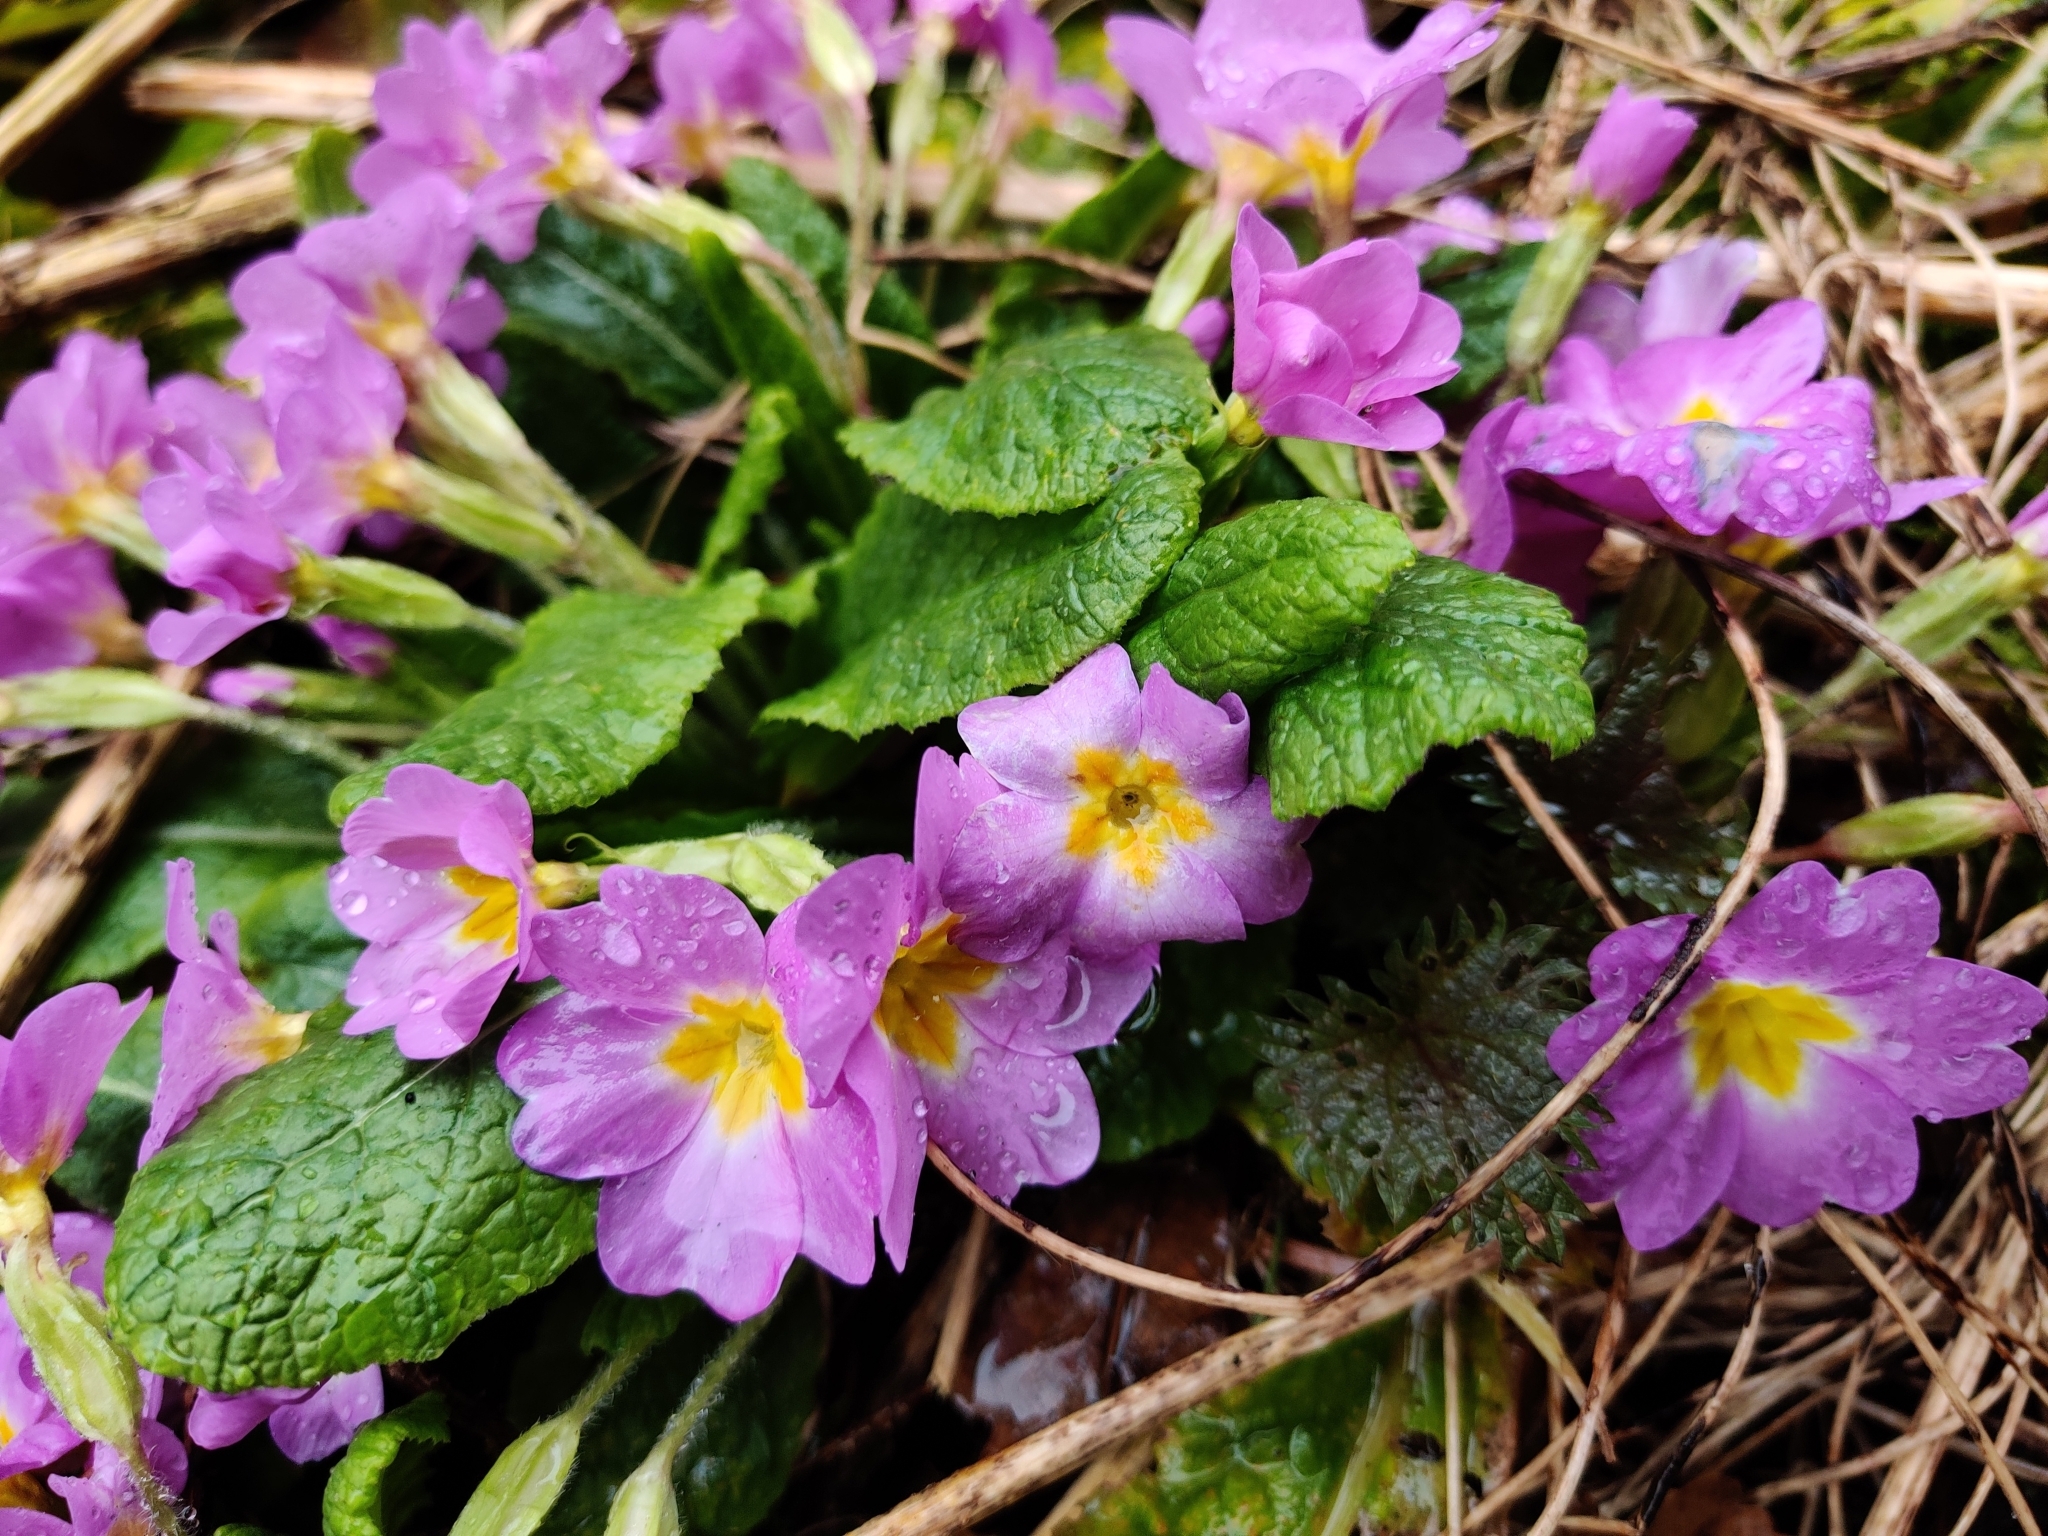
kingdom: Plantae
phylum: Tracheophyta
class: Magnoliopsida
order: Ericales
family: Primulaceae
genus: Primula
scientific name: Primula vulgaris
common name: Primrose
